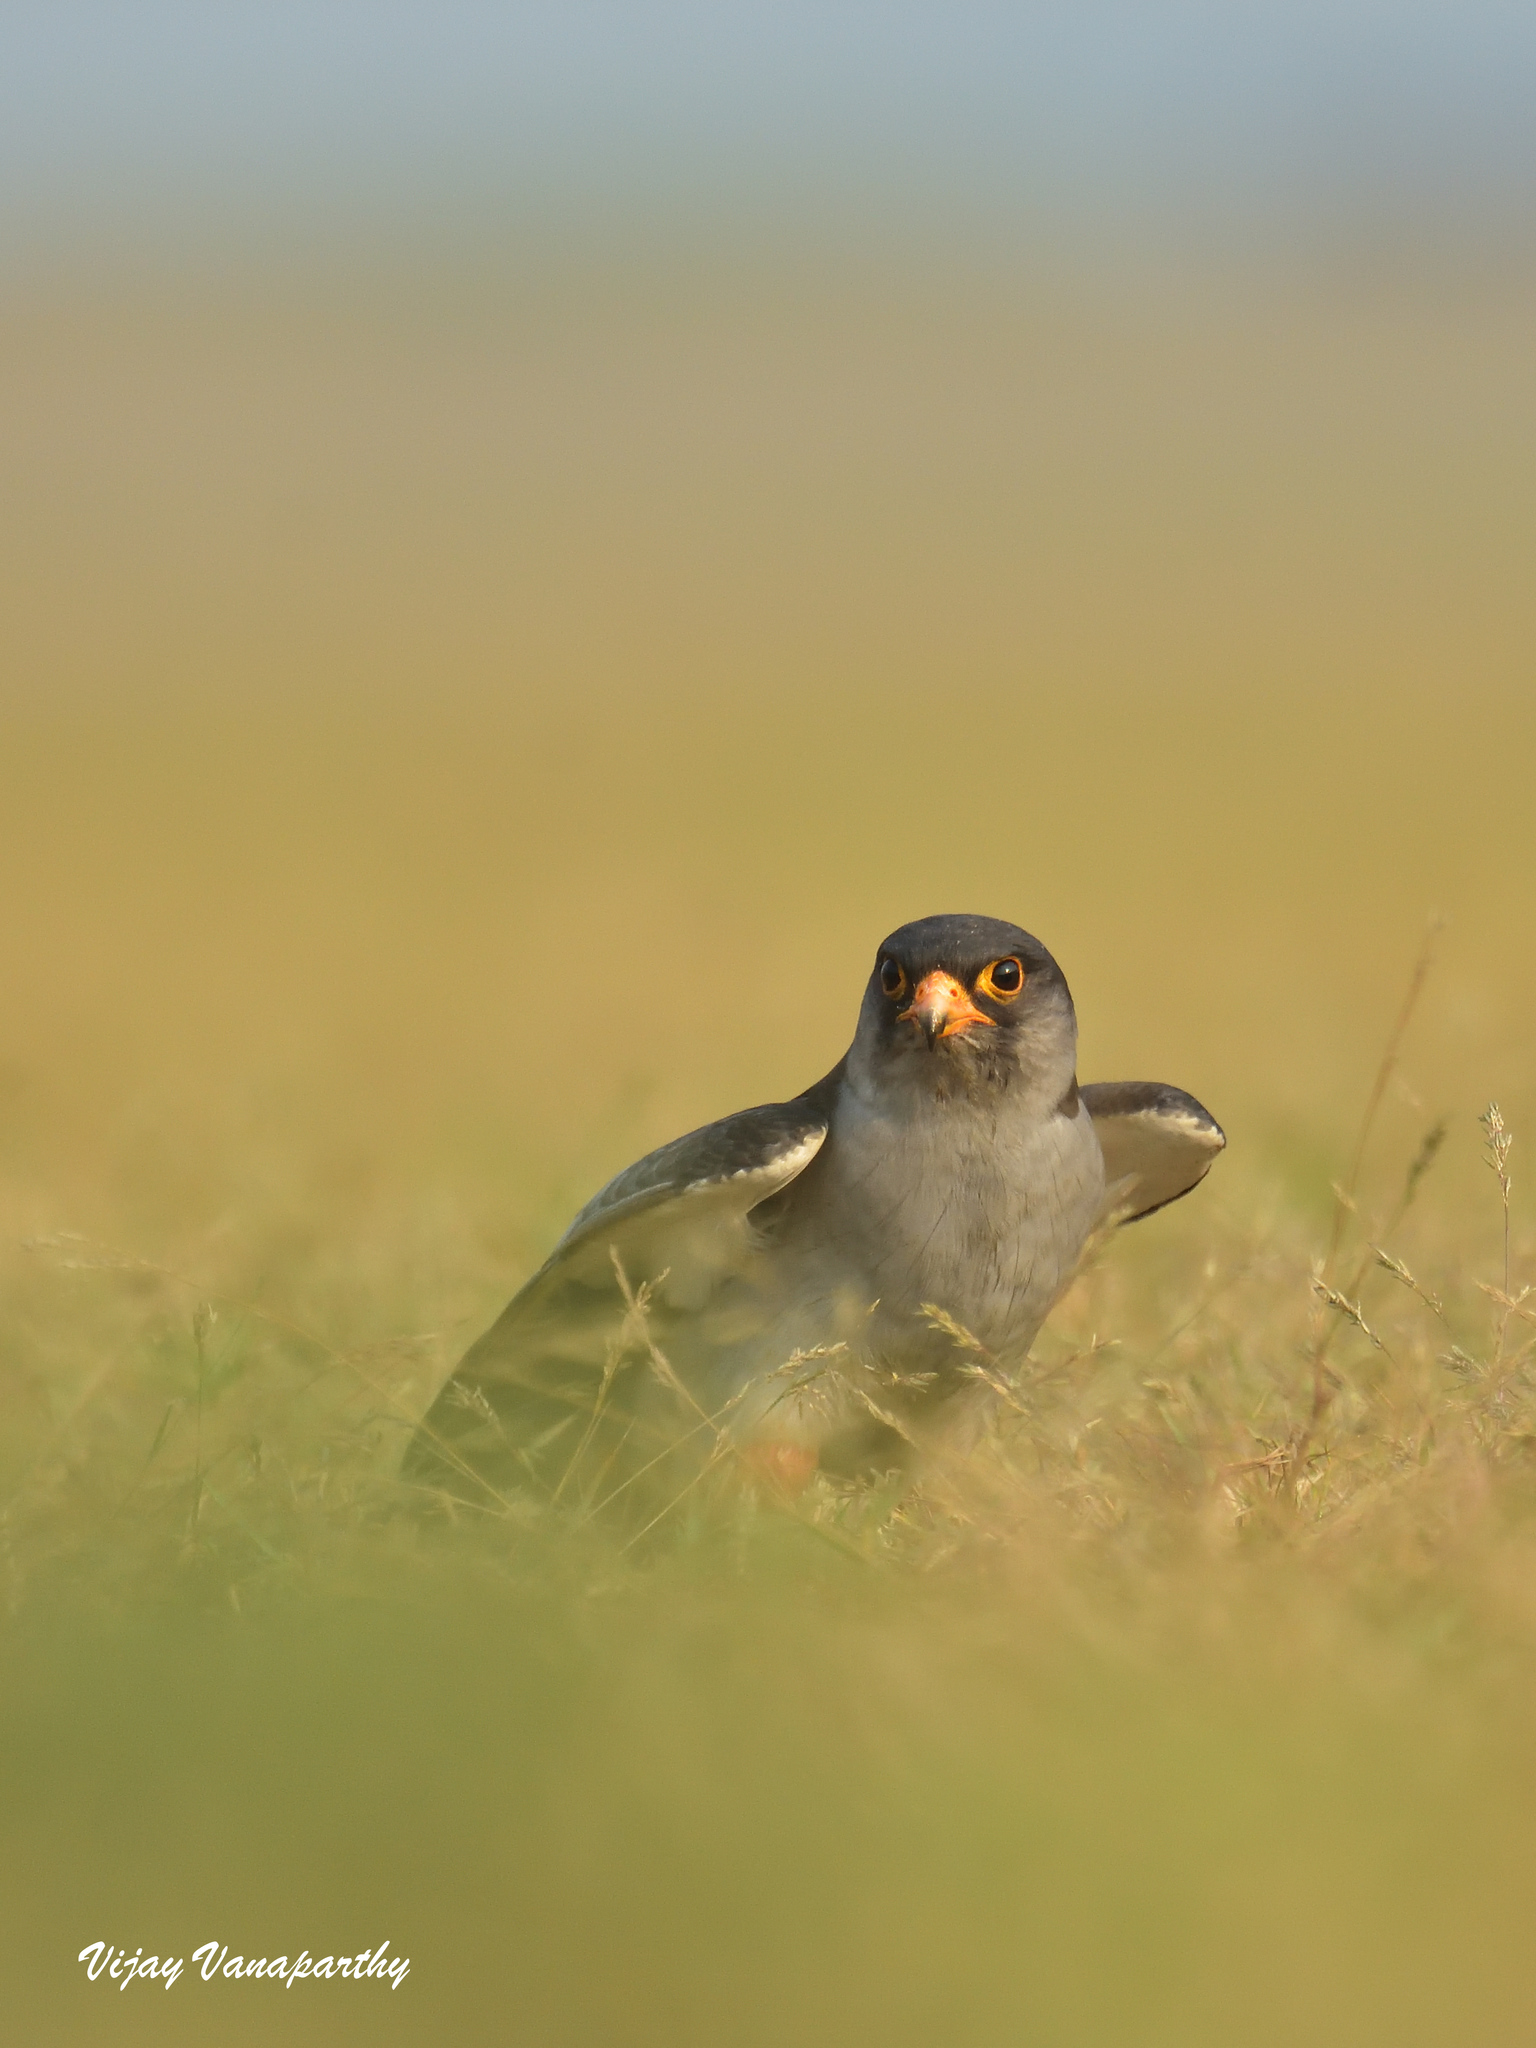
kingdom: Animalia
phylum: Chordata
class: Aves
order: Falconiformes
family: Falconidae
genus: Falco
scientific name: Falco amurensis
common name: Amur falcon
